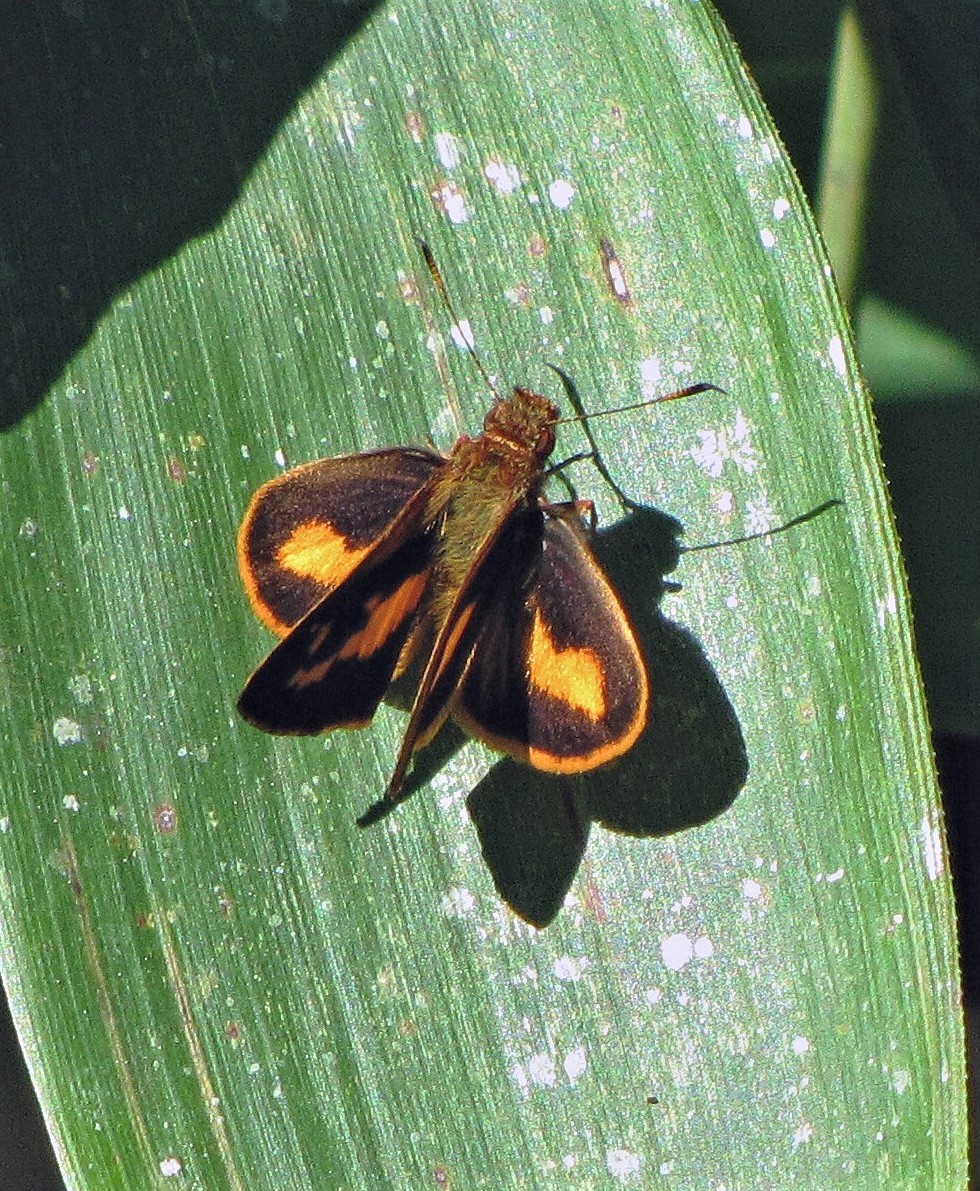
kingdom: Animalia
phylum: Arthropoda
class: Insecta
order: Lepidoptera
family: Hesperiidae
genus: Lento
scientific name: Lento krexoides
